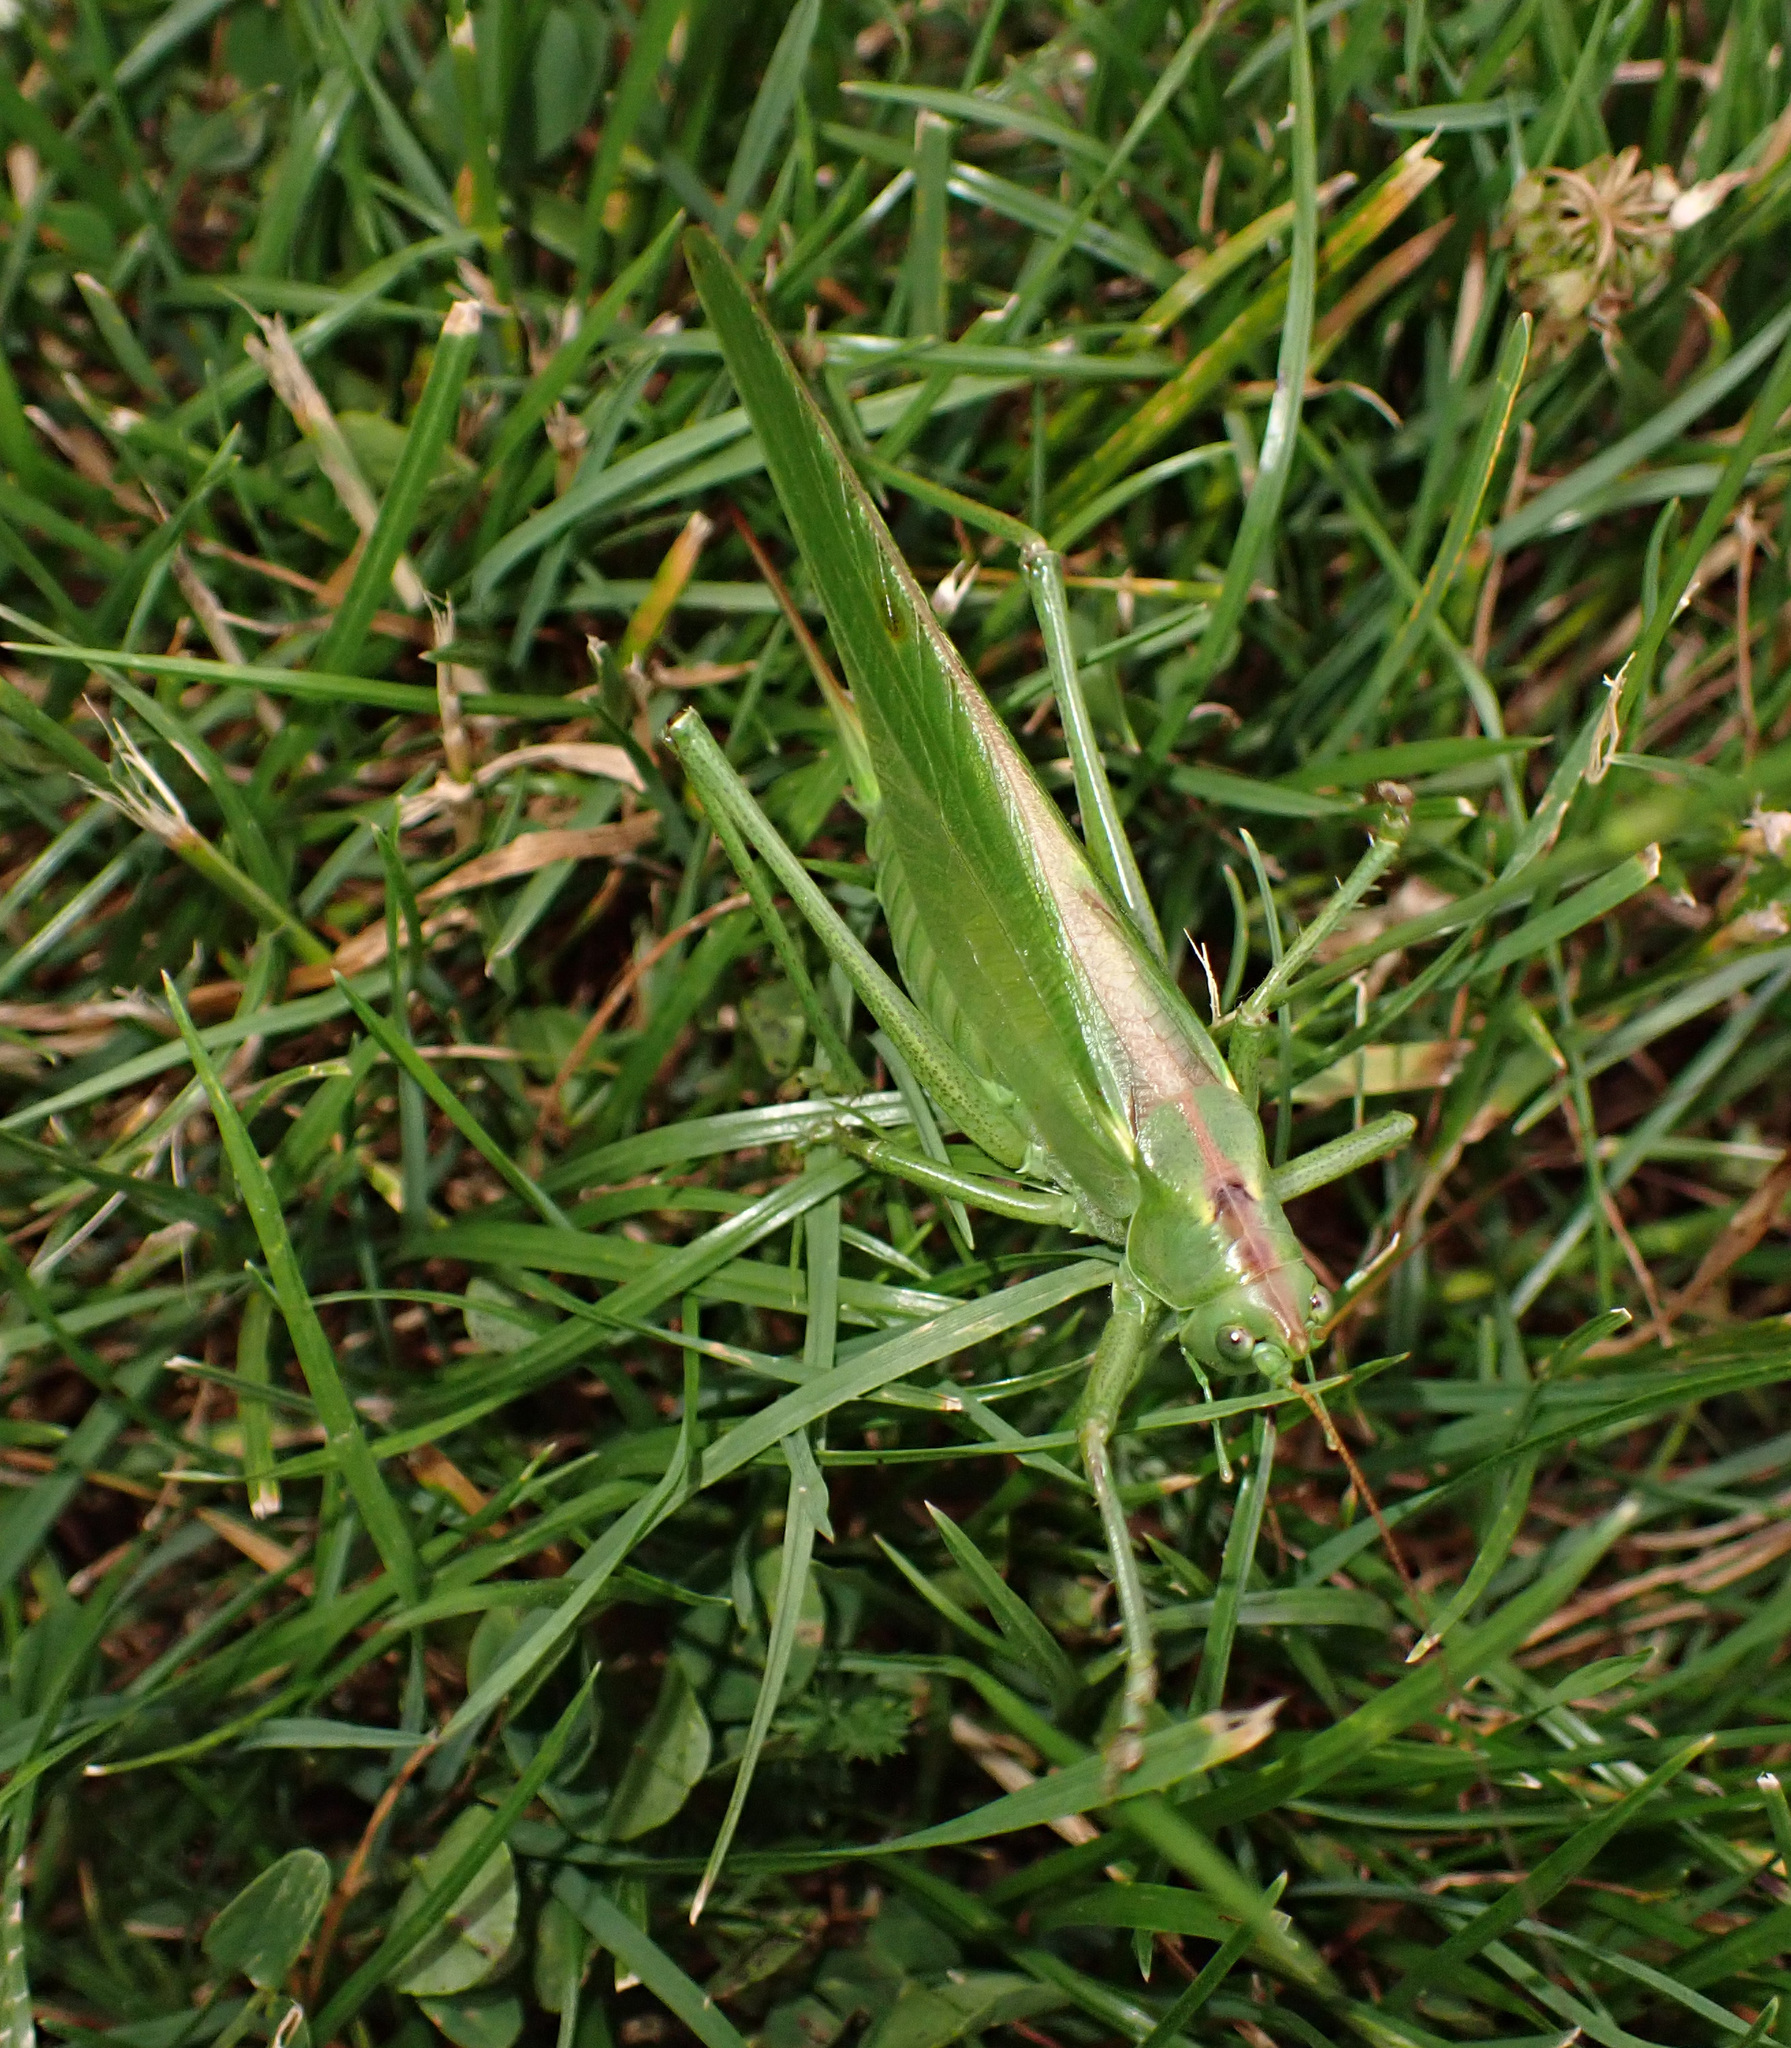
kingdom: Animalia
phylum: Arthropoda
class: Insecta
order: Orthoptera
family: Tettigoniidae
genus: Tettigonia
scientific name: Tettigonia viridissima
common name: Great green bush-cricket
